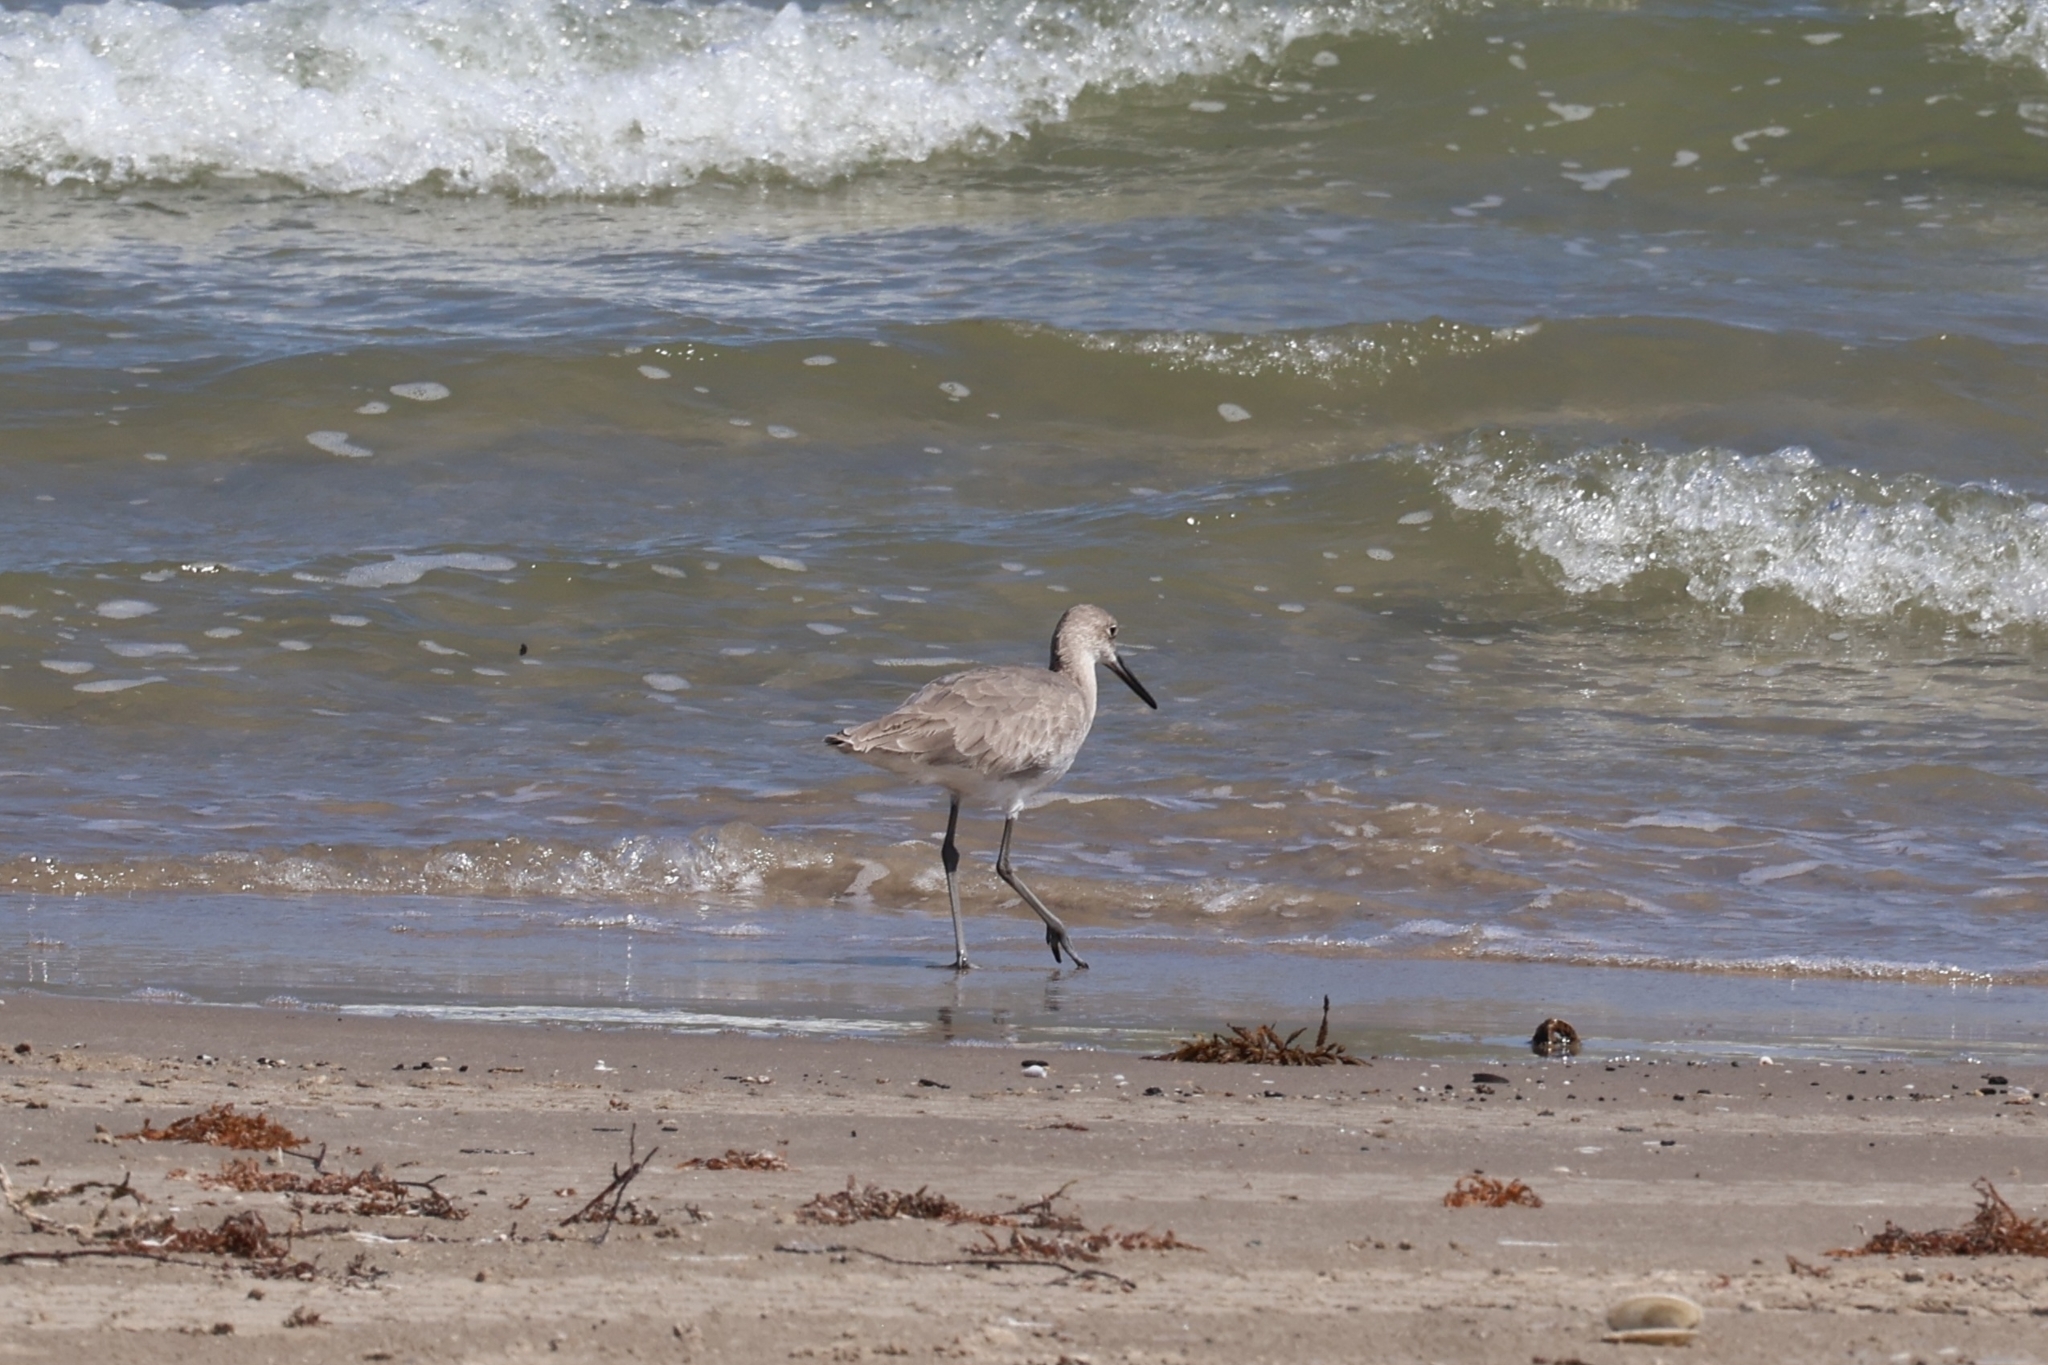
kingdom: Animalia
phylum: Chordata
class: Aves
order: Charadriiformes
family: Scolopacidae
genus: Tringa
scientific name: Tringa semipalmata
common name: Willet
